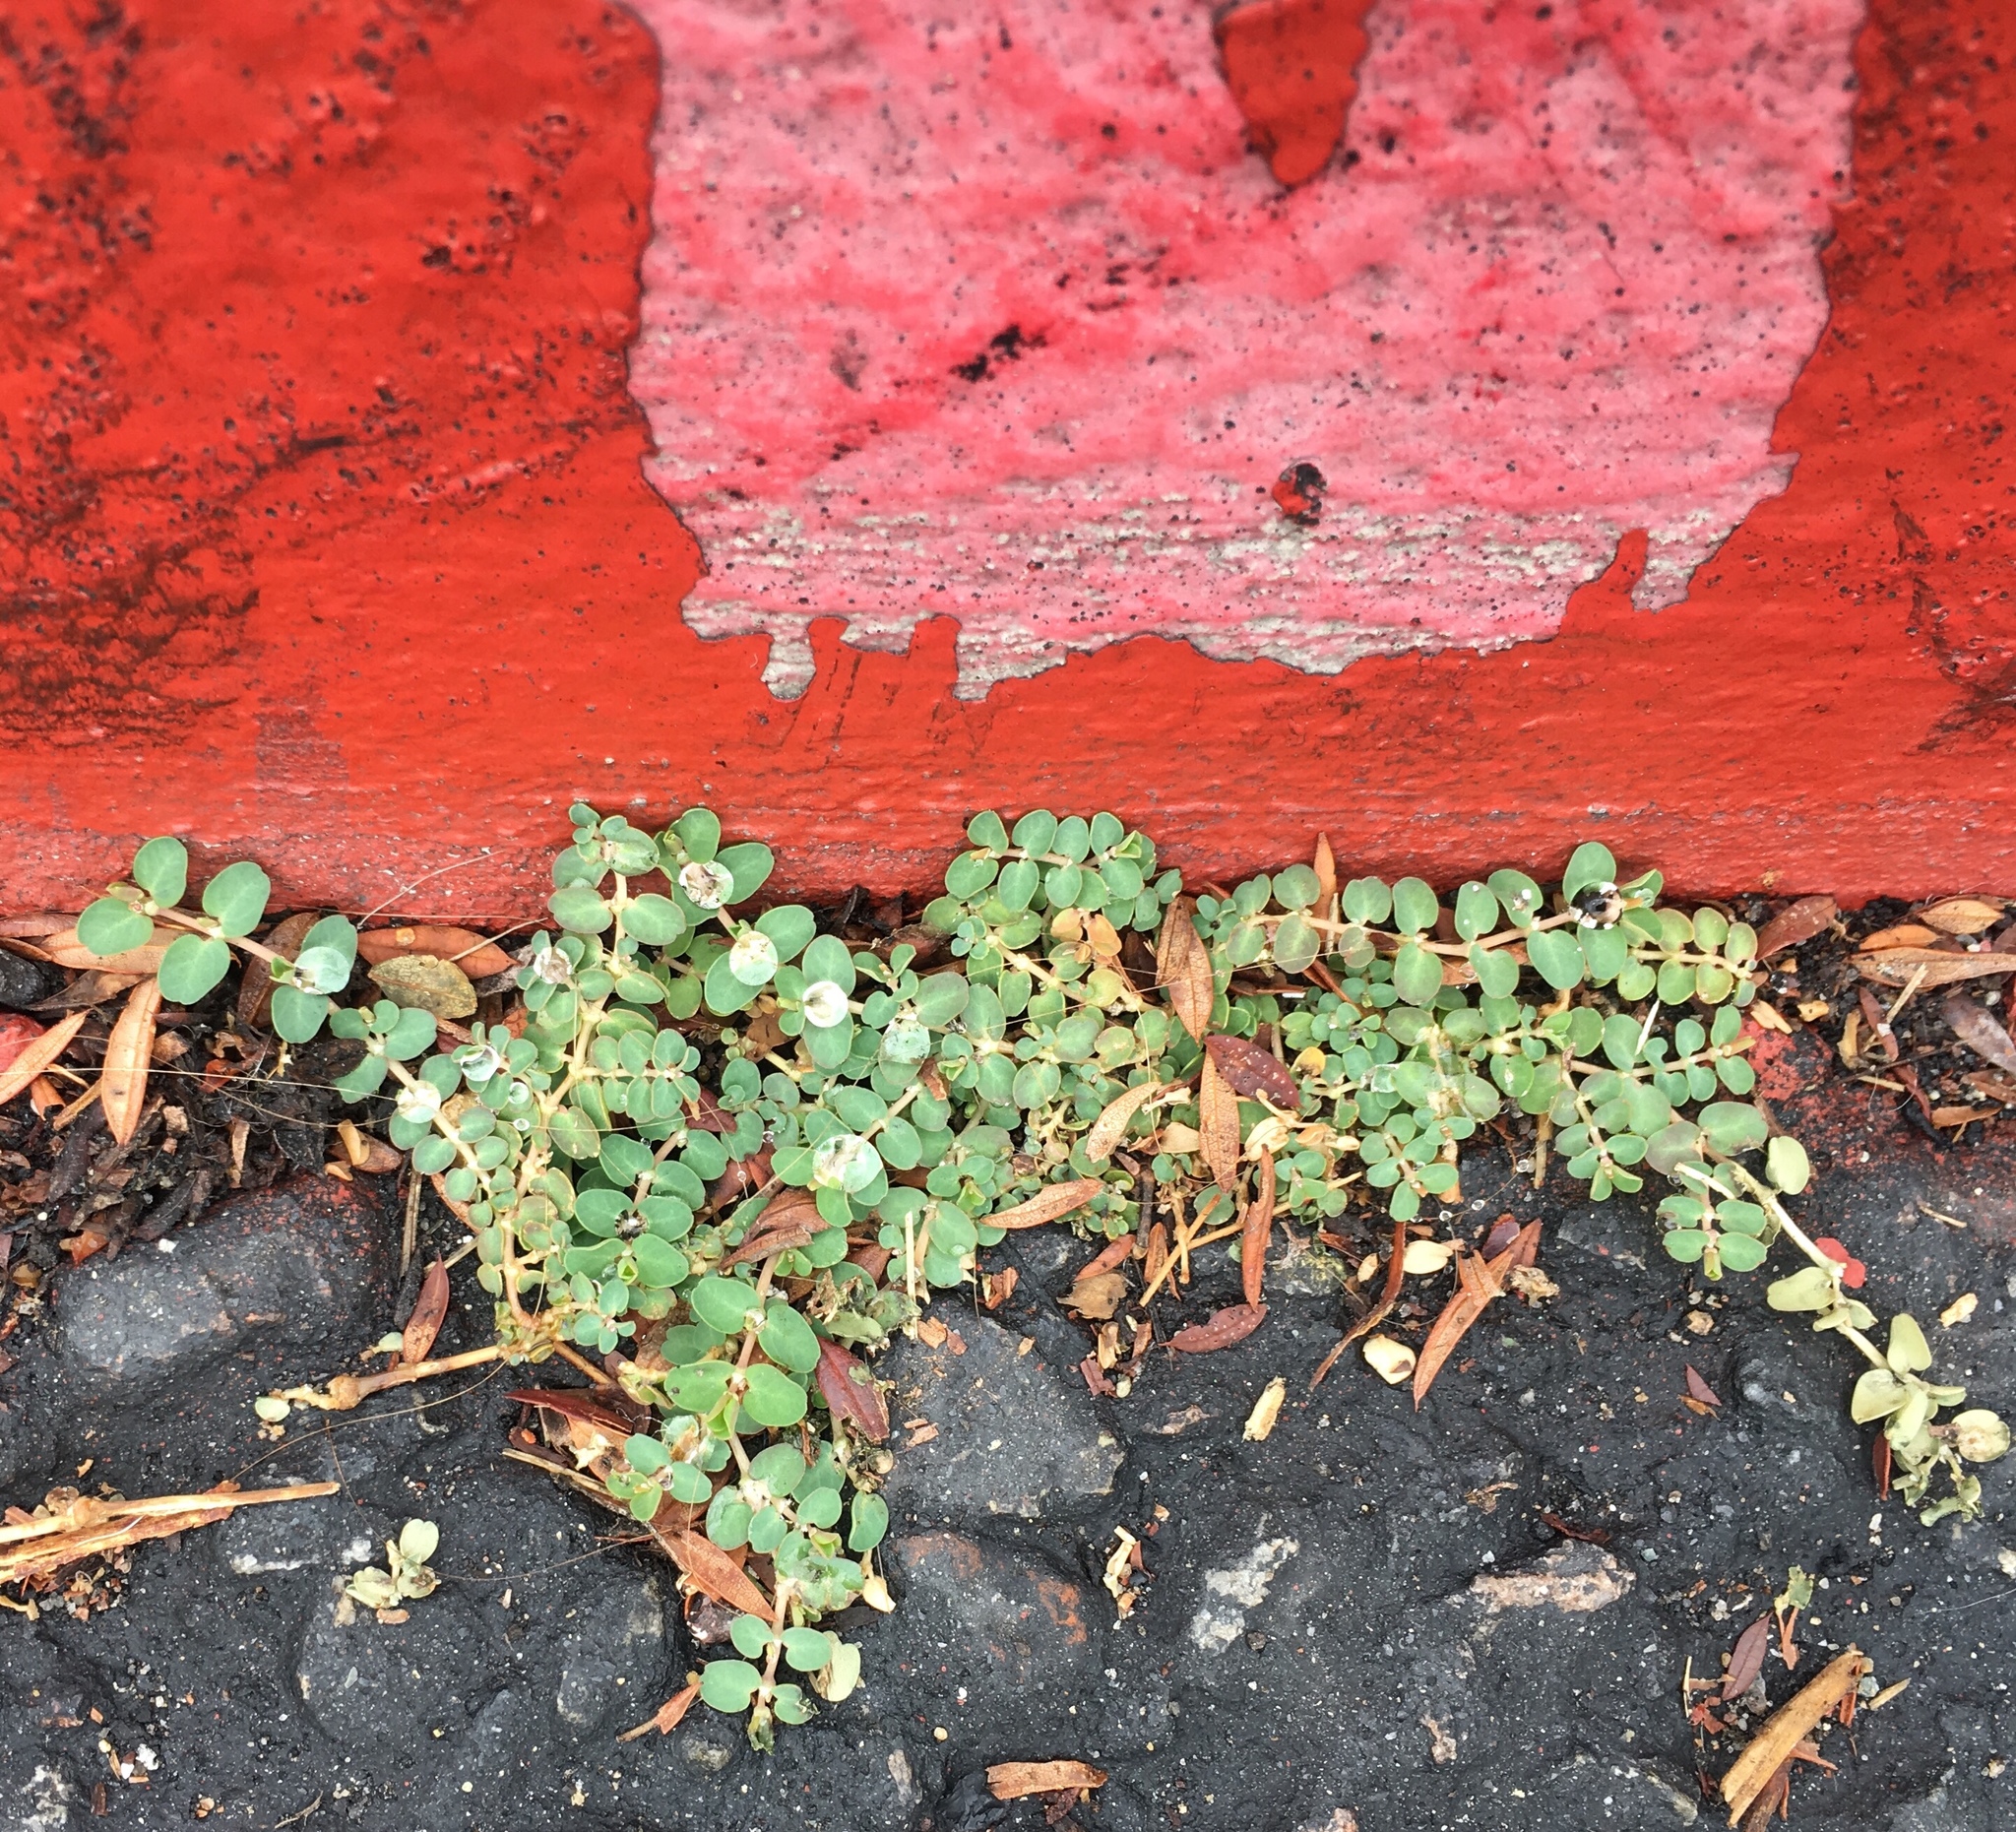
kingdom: Plantae
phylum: Tracheophyta
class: Magnoliopsida
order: Malpighiales
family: Euphorbiaceae
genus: Euphorbia
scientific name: Euphorbia serpens
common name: Matted sandmat
